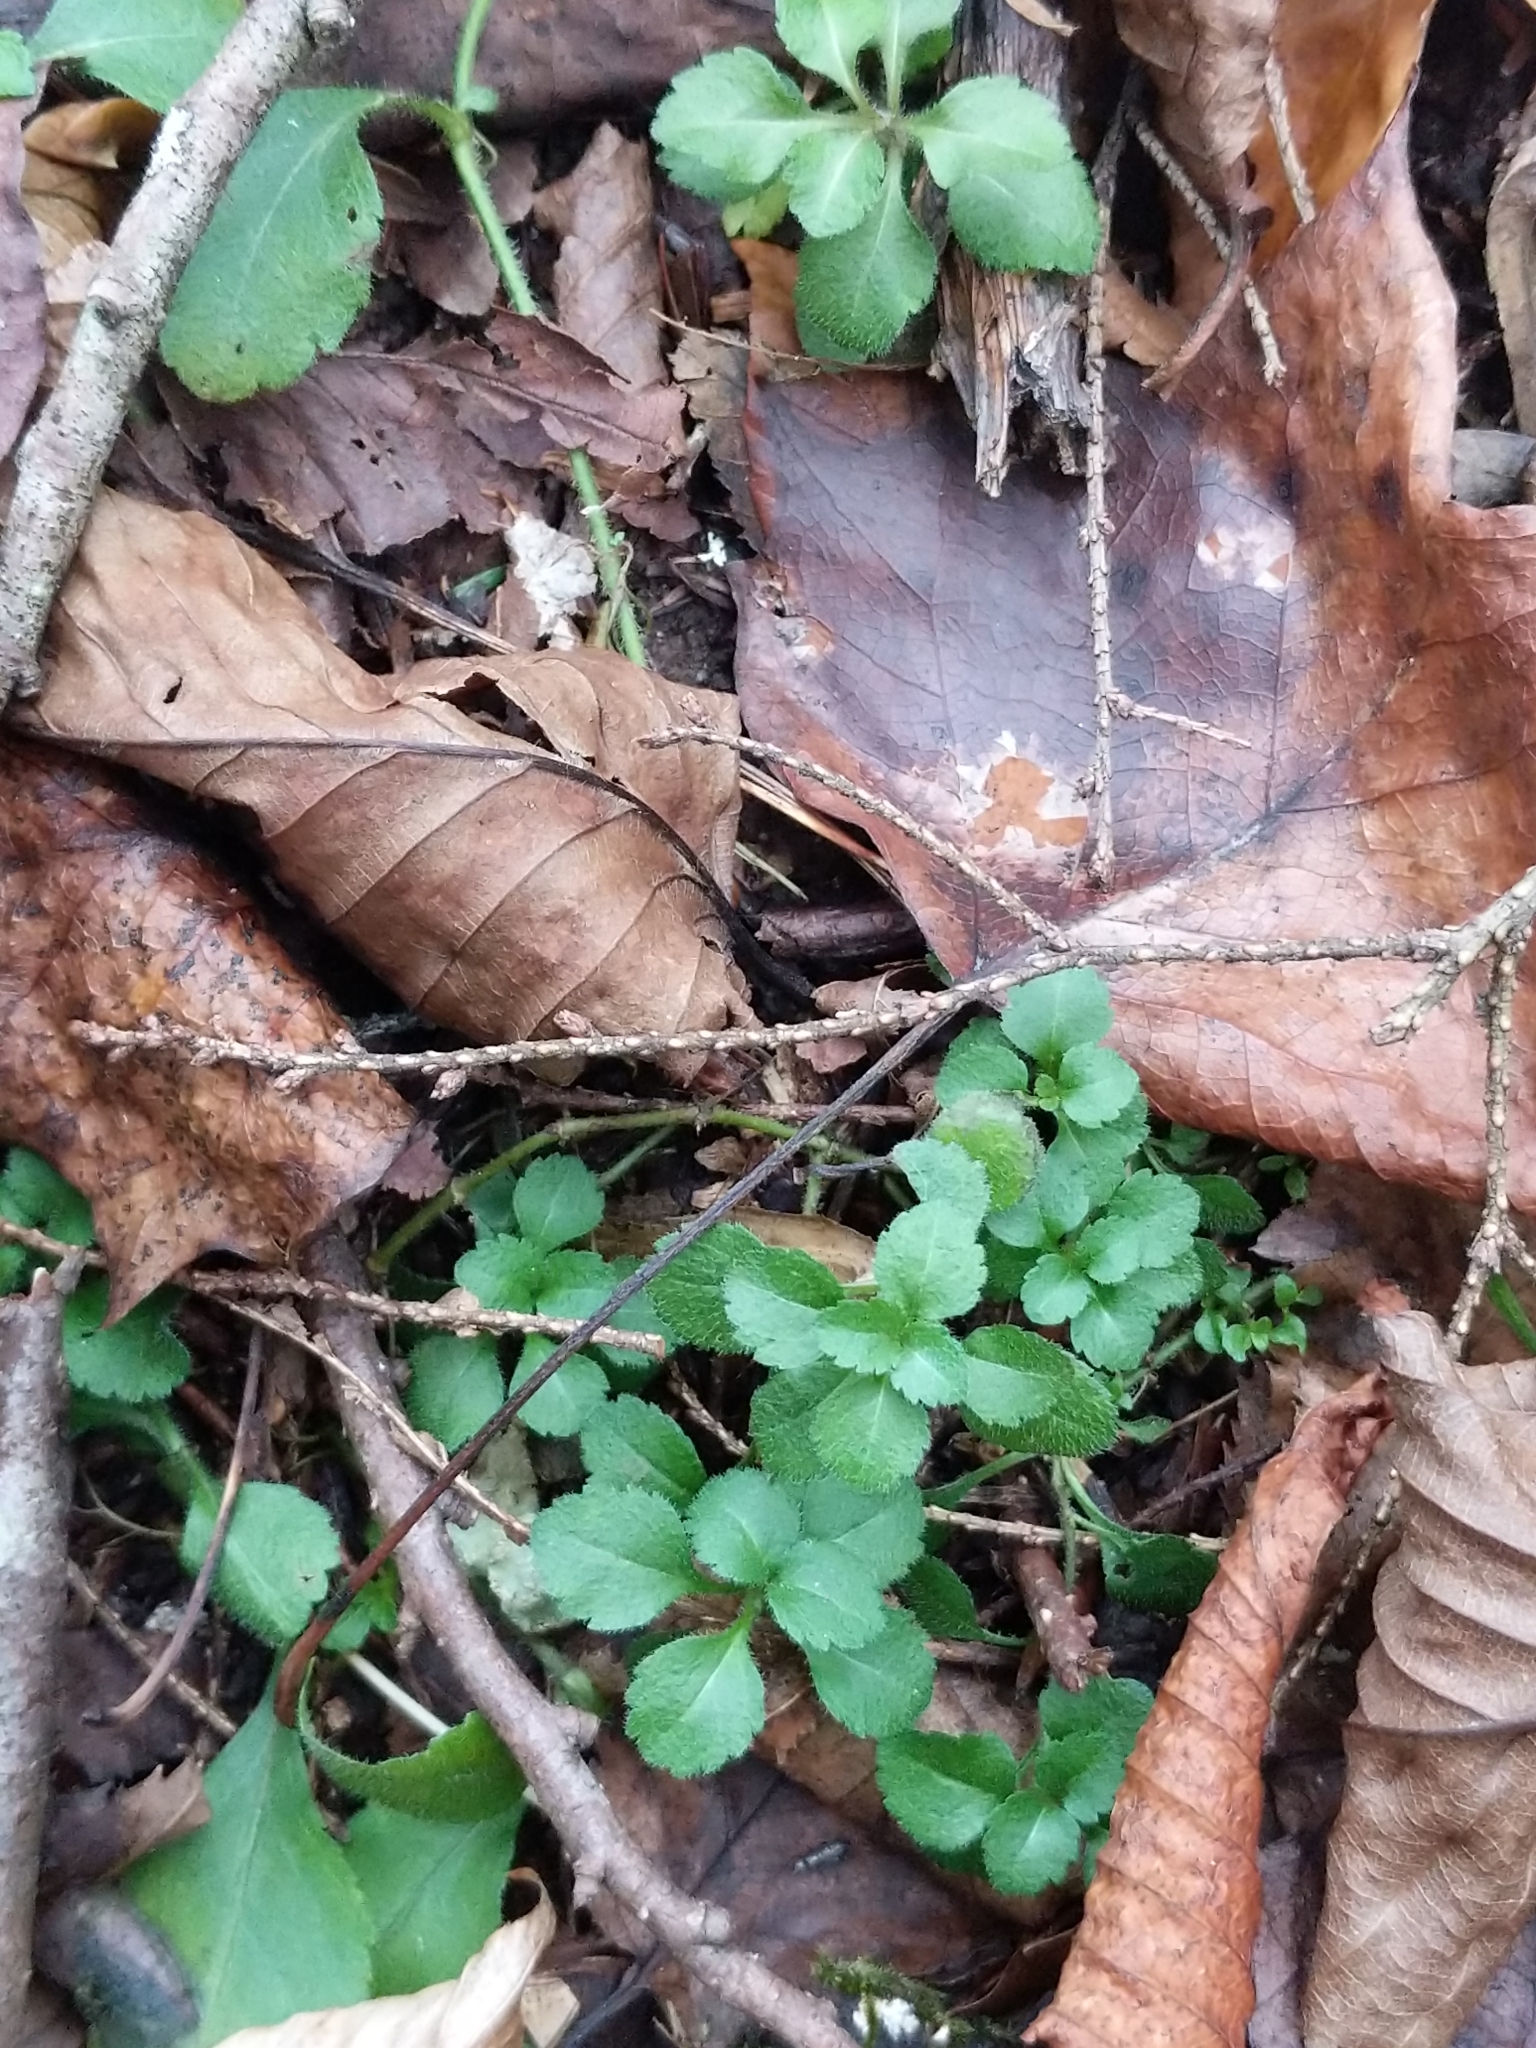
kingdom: Plantae
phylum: Tracheophyta
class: Magnoliopsida
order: Lamiales
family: Plantaginaceae
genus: Veronica
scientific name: Veronica officinalis
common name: Common speedwell
